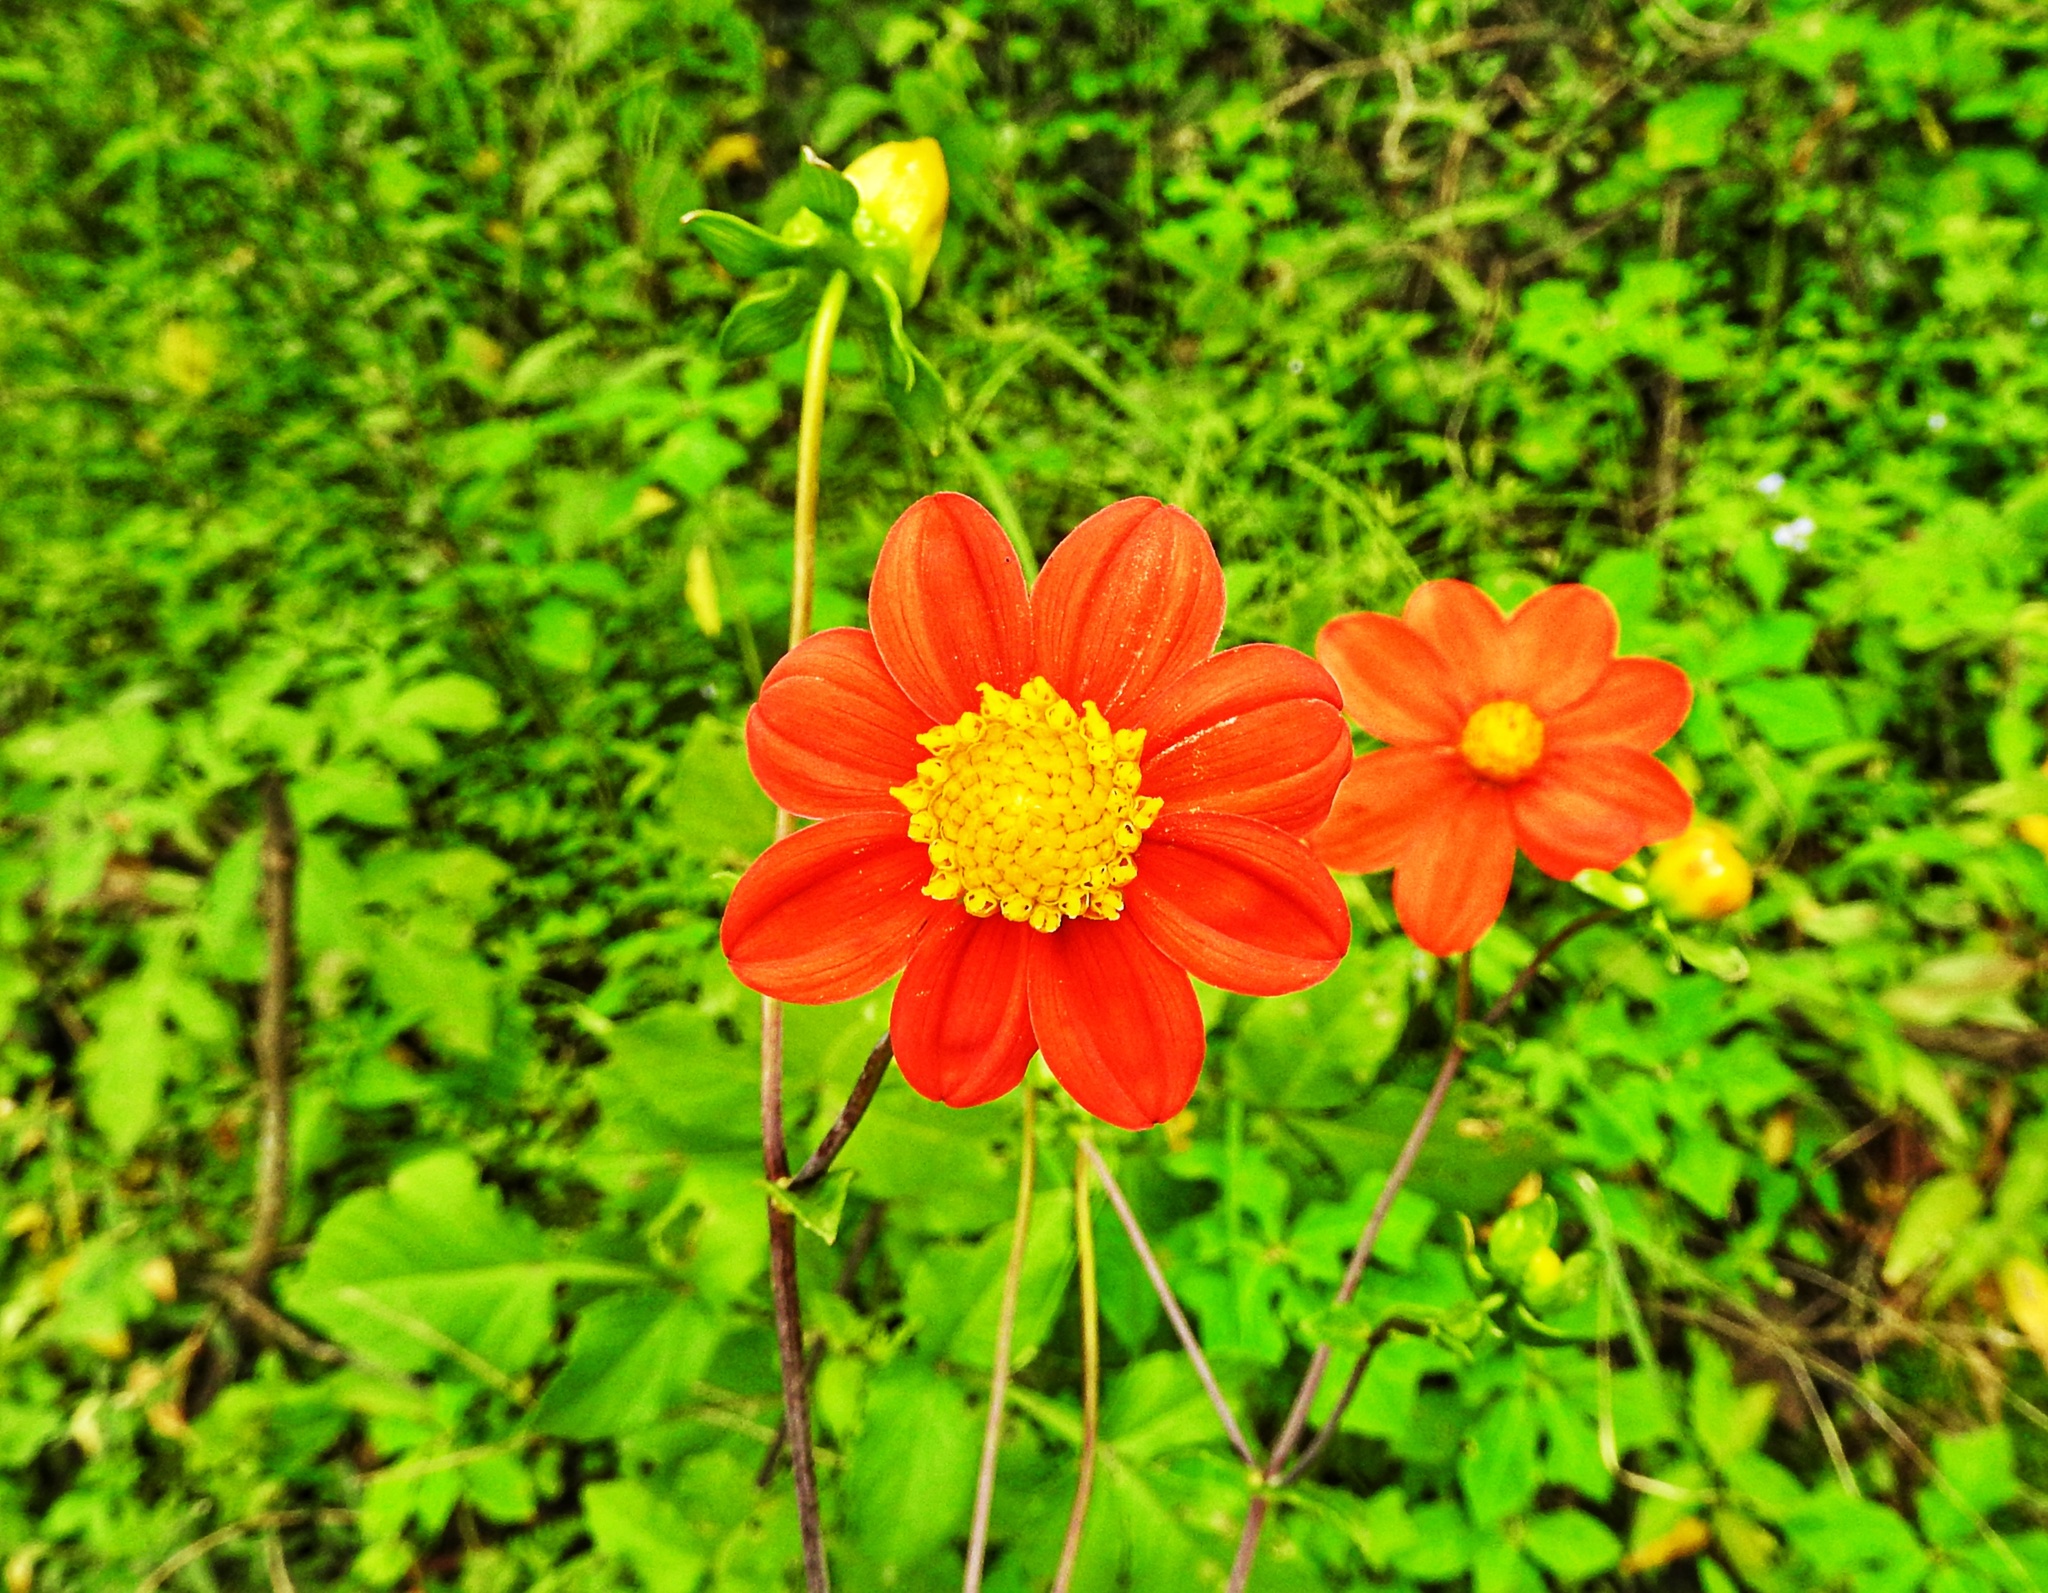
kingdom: Plantae
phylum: Tracheophyta
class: Magnoliopsida
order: Asterales
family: Asteraceae
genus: Dahlia
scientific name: Dahlia coccinea
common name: Red dahlia
